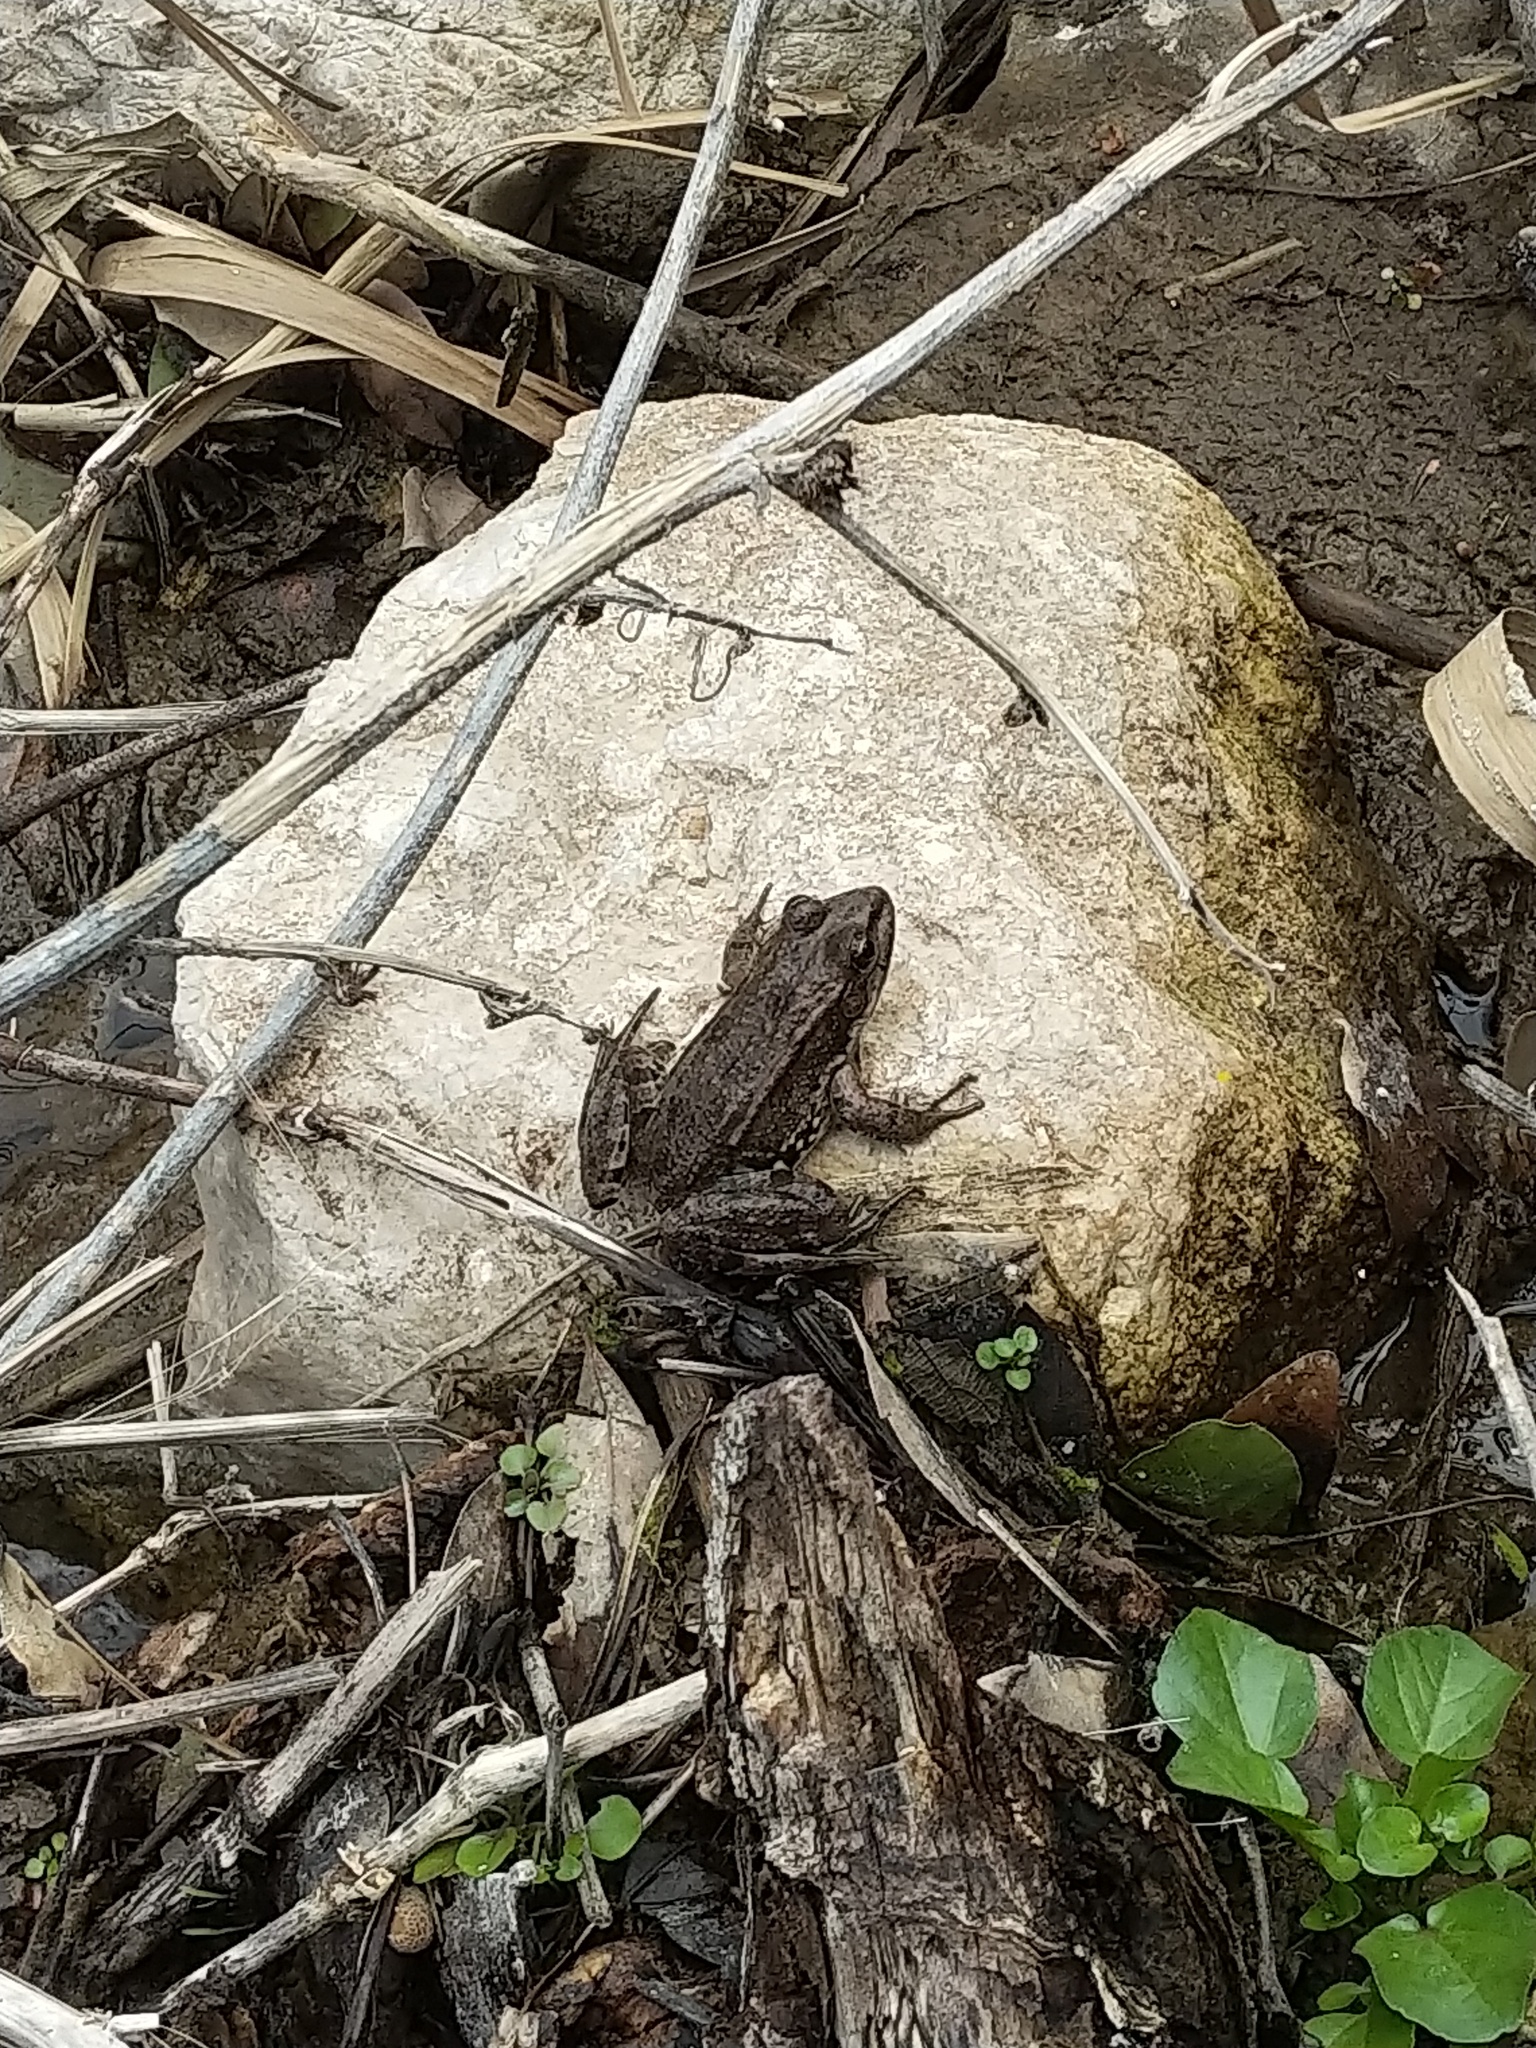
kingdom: Animalia
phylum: Chordata
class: Amphibia
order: Anura
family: Ranidae
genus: Pelophylax
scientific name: Pelophylax ridibundus
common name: Marsh frog
